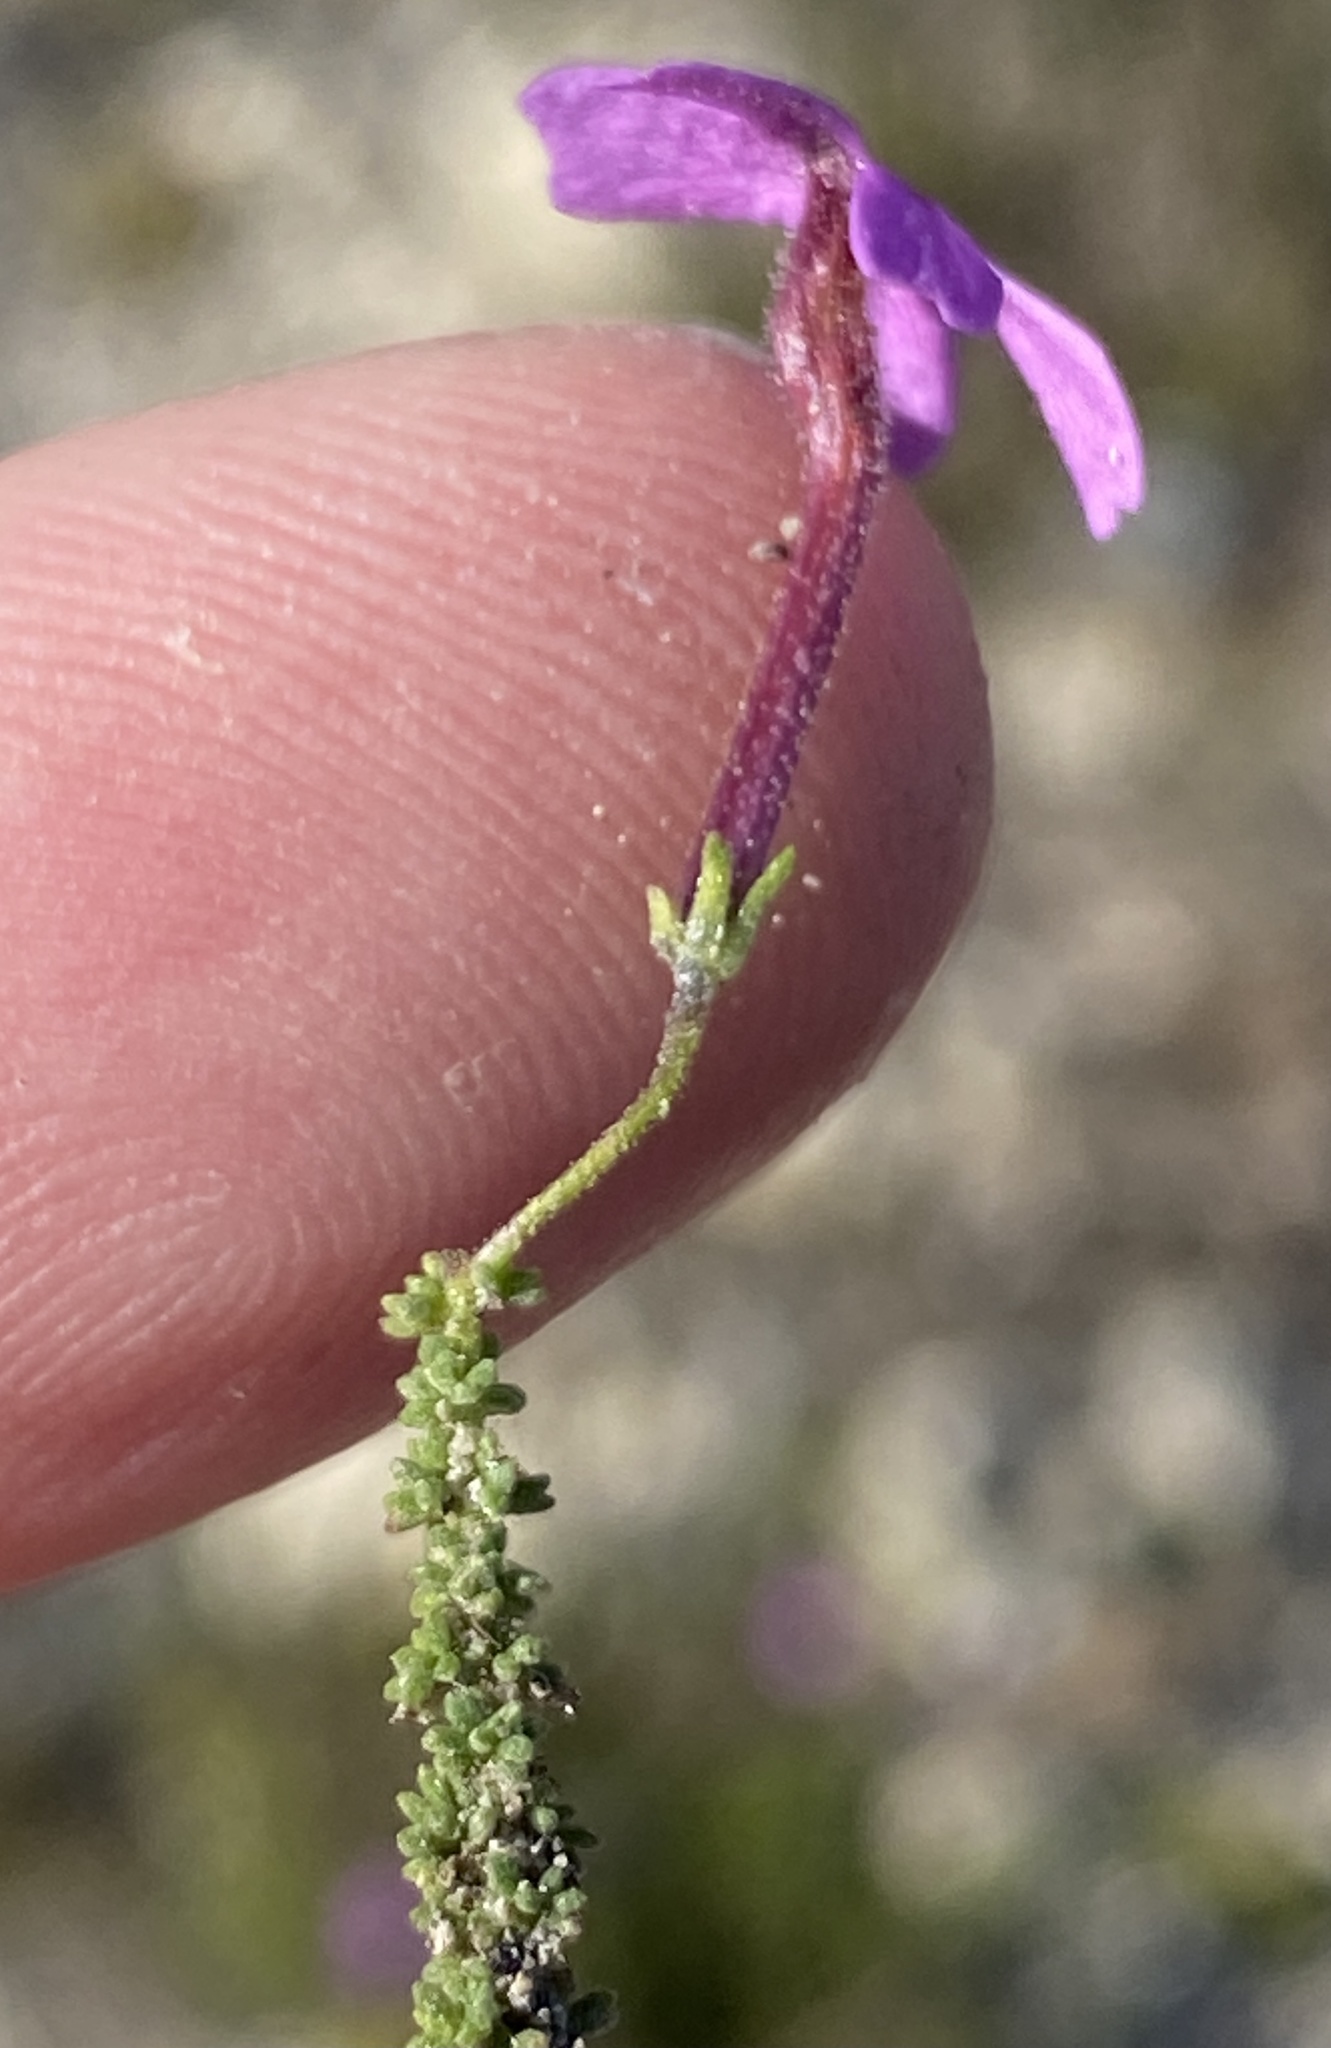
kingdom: Plantae
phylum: Tracheophyta
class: Magnoliopsida
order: Lamiales
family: Scrophulariaceae
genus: Jamesbrittenia
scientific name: Jamesbrittenia calciphila
